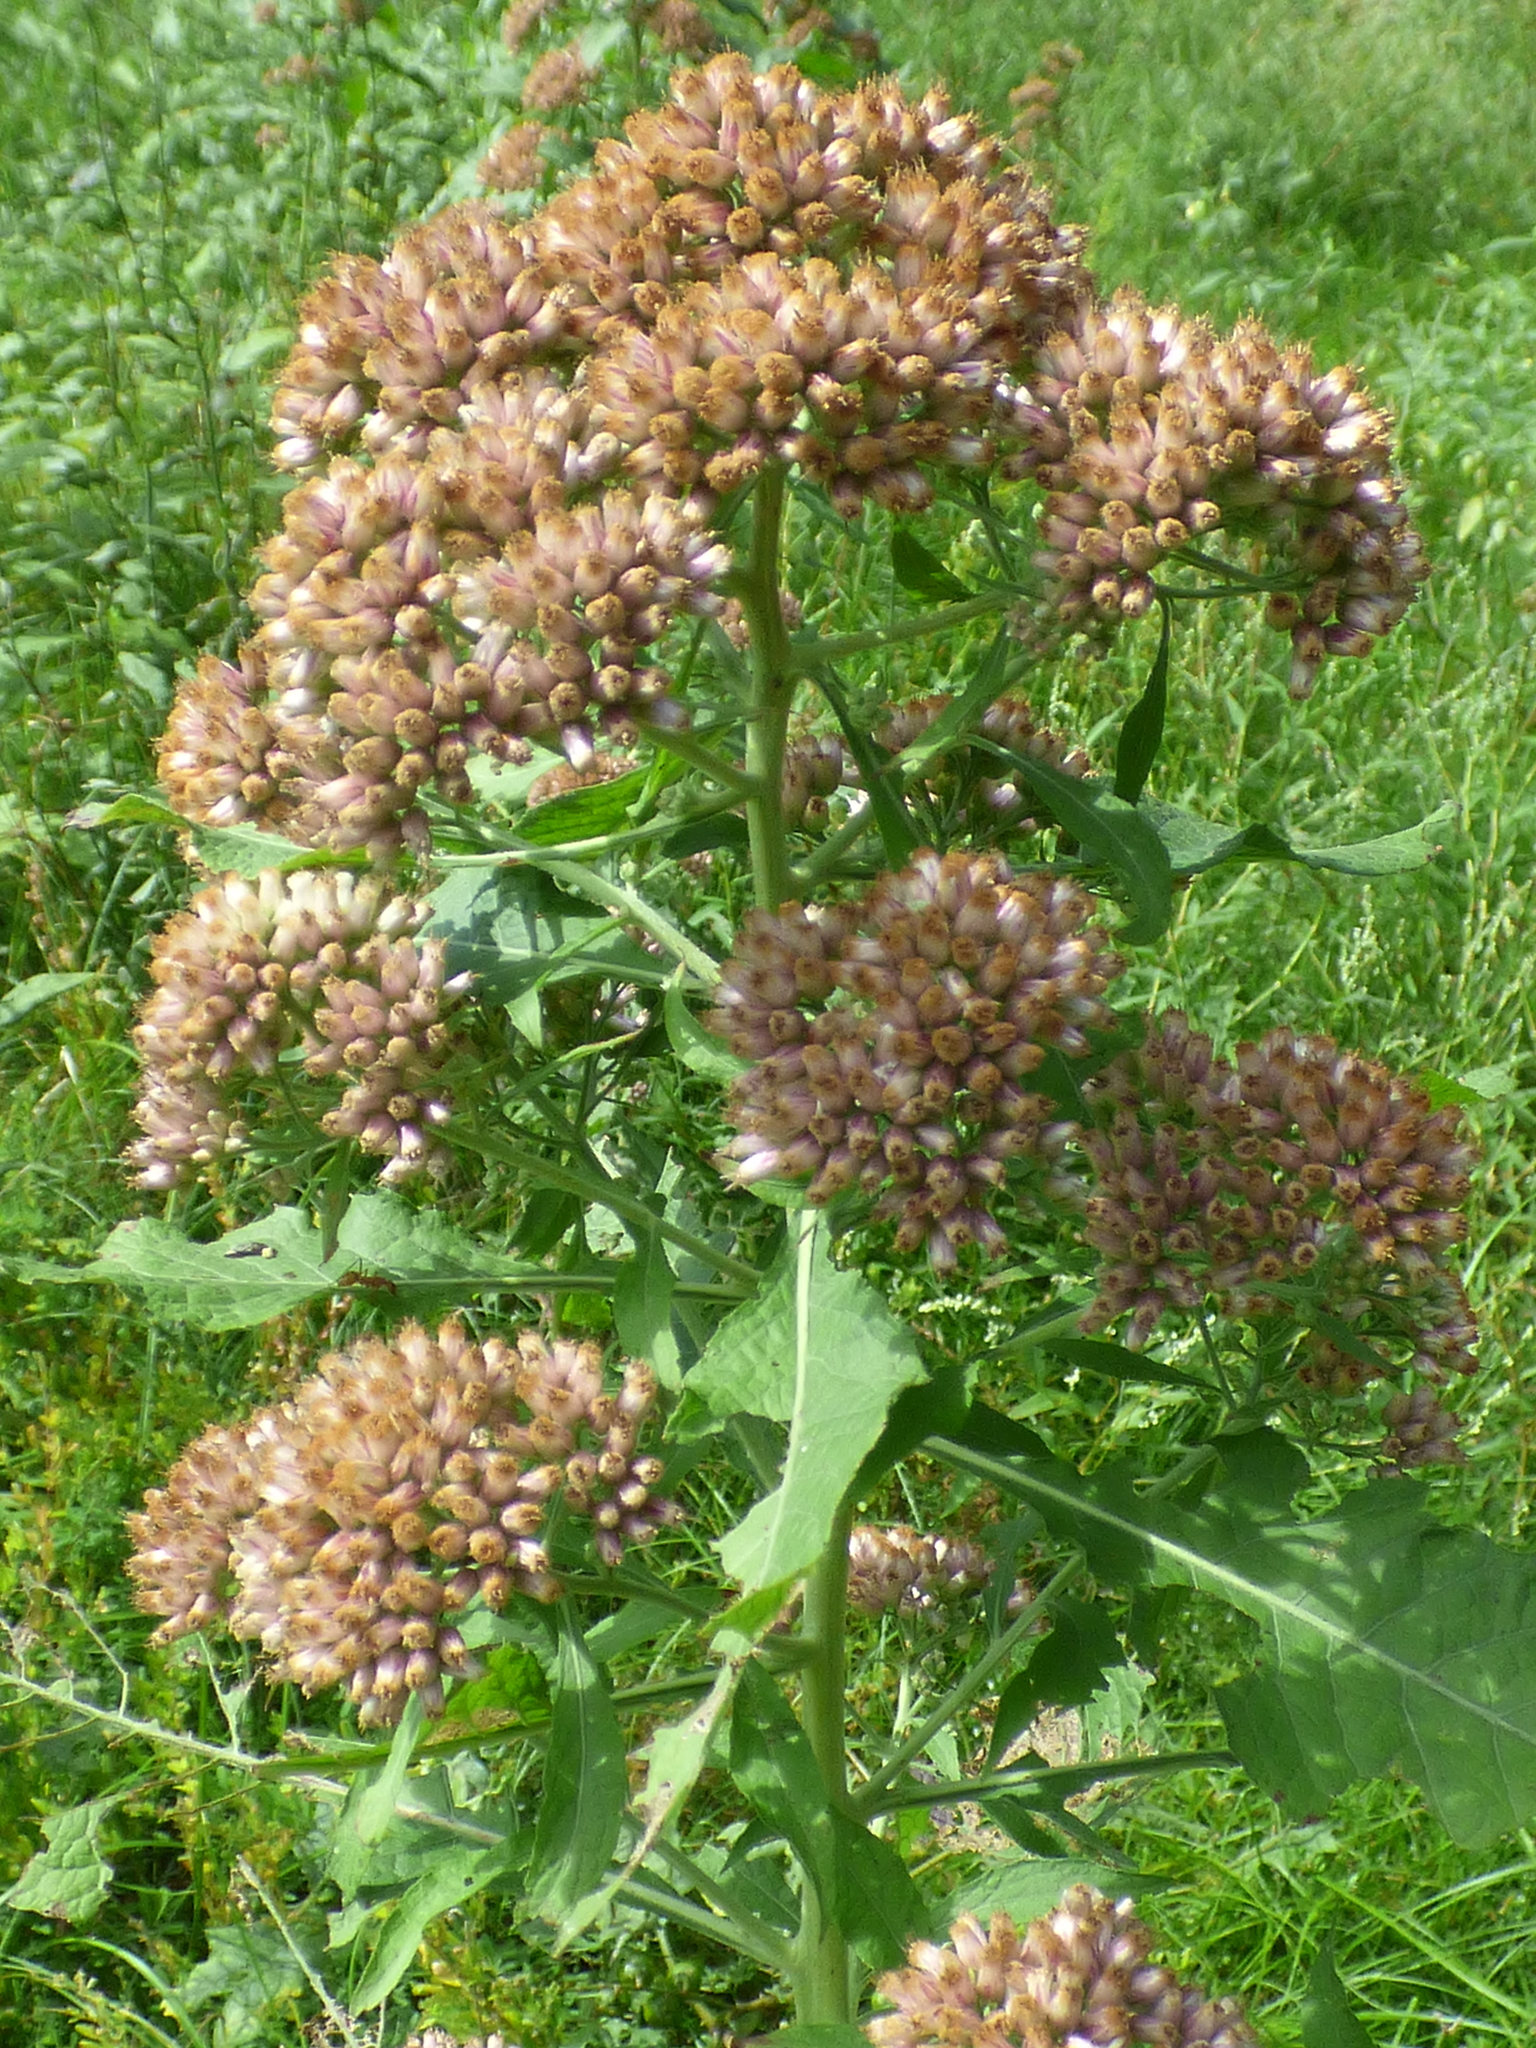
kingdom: Plantae
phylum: Tracheophyta
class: Magnoliopsida
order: Asterales
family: Asteraceae
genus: Pluchea
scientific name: Pluchea camphorata
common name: Camphor pluchea
